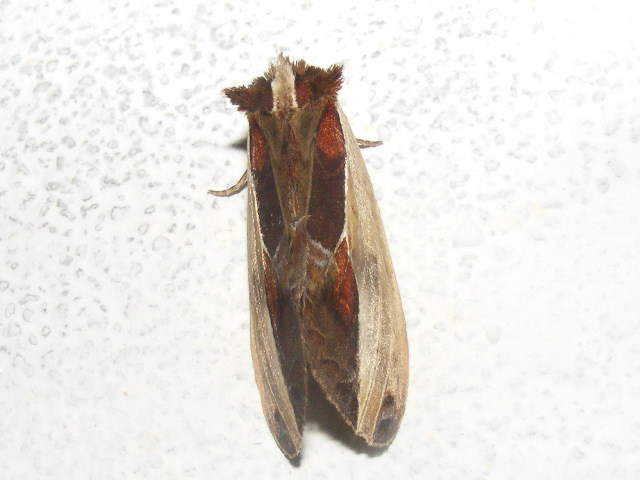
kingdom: Animalia
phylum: Arthropoda
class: Insecta
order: Lepidoptera
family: Notodontidae
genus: Rosama
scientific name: Rosama auritracta
